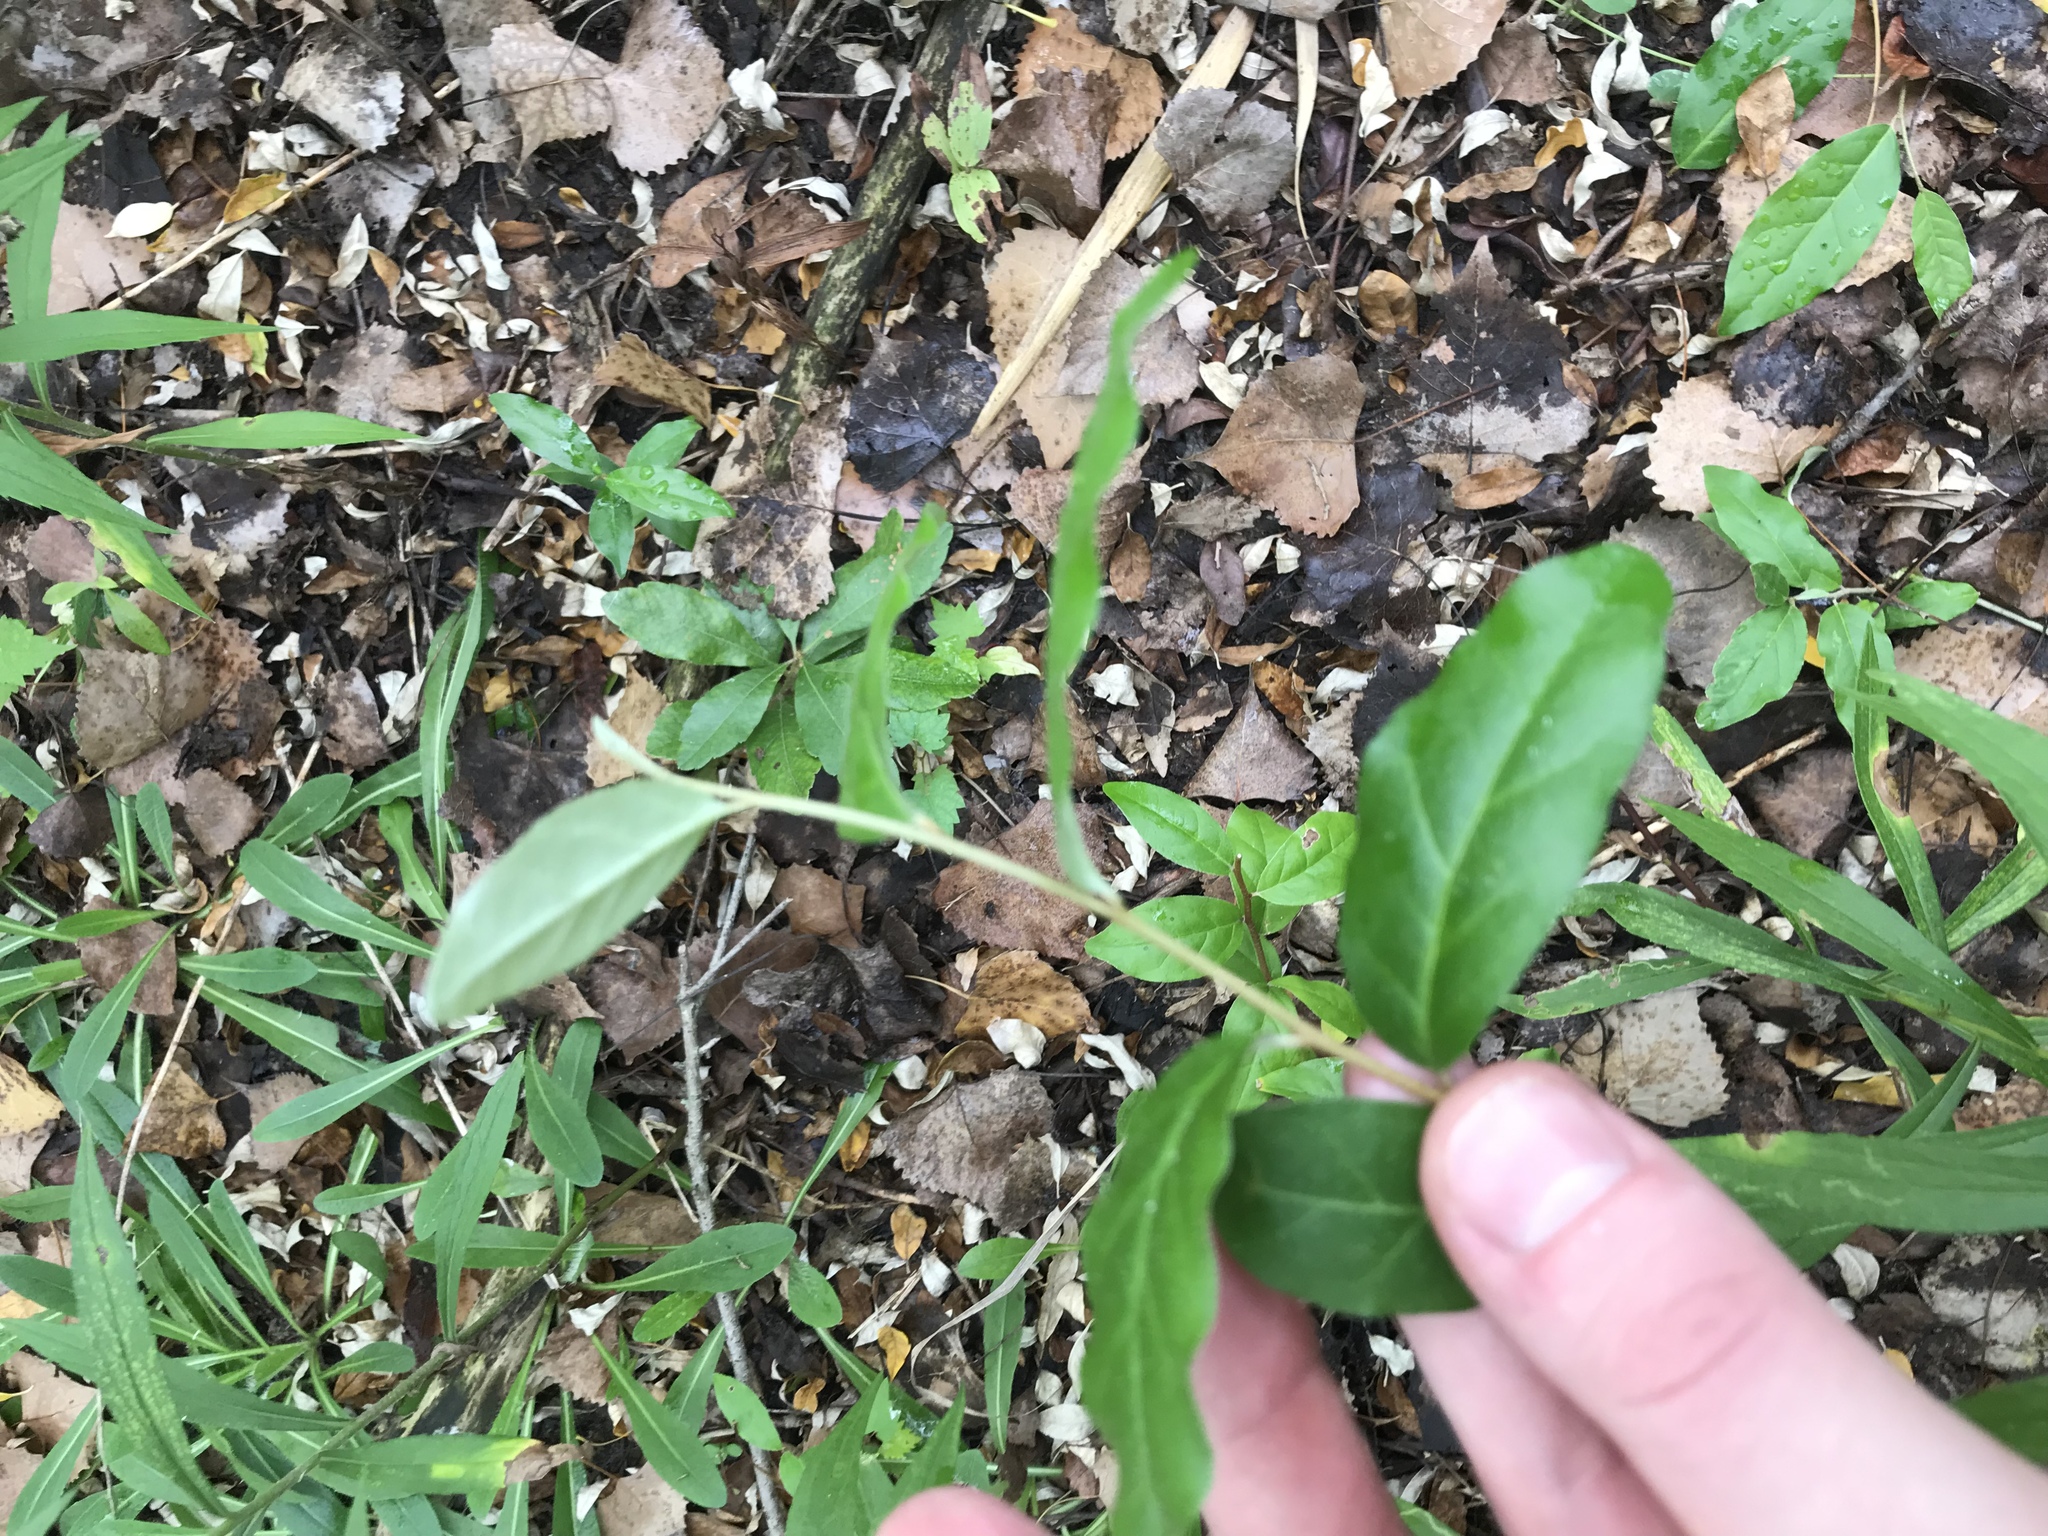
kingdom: Plantae
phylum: Tracheophyta
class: Magnoliopsida
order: Rosales
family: Elaeagnaceae
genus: Elaeagnus
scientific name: Elaeagnus umbellata
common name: Autumn olive
